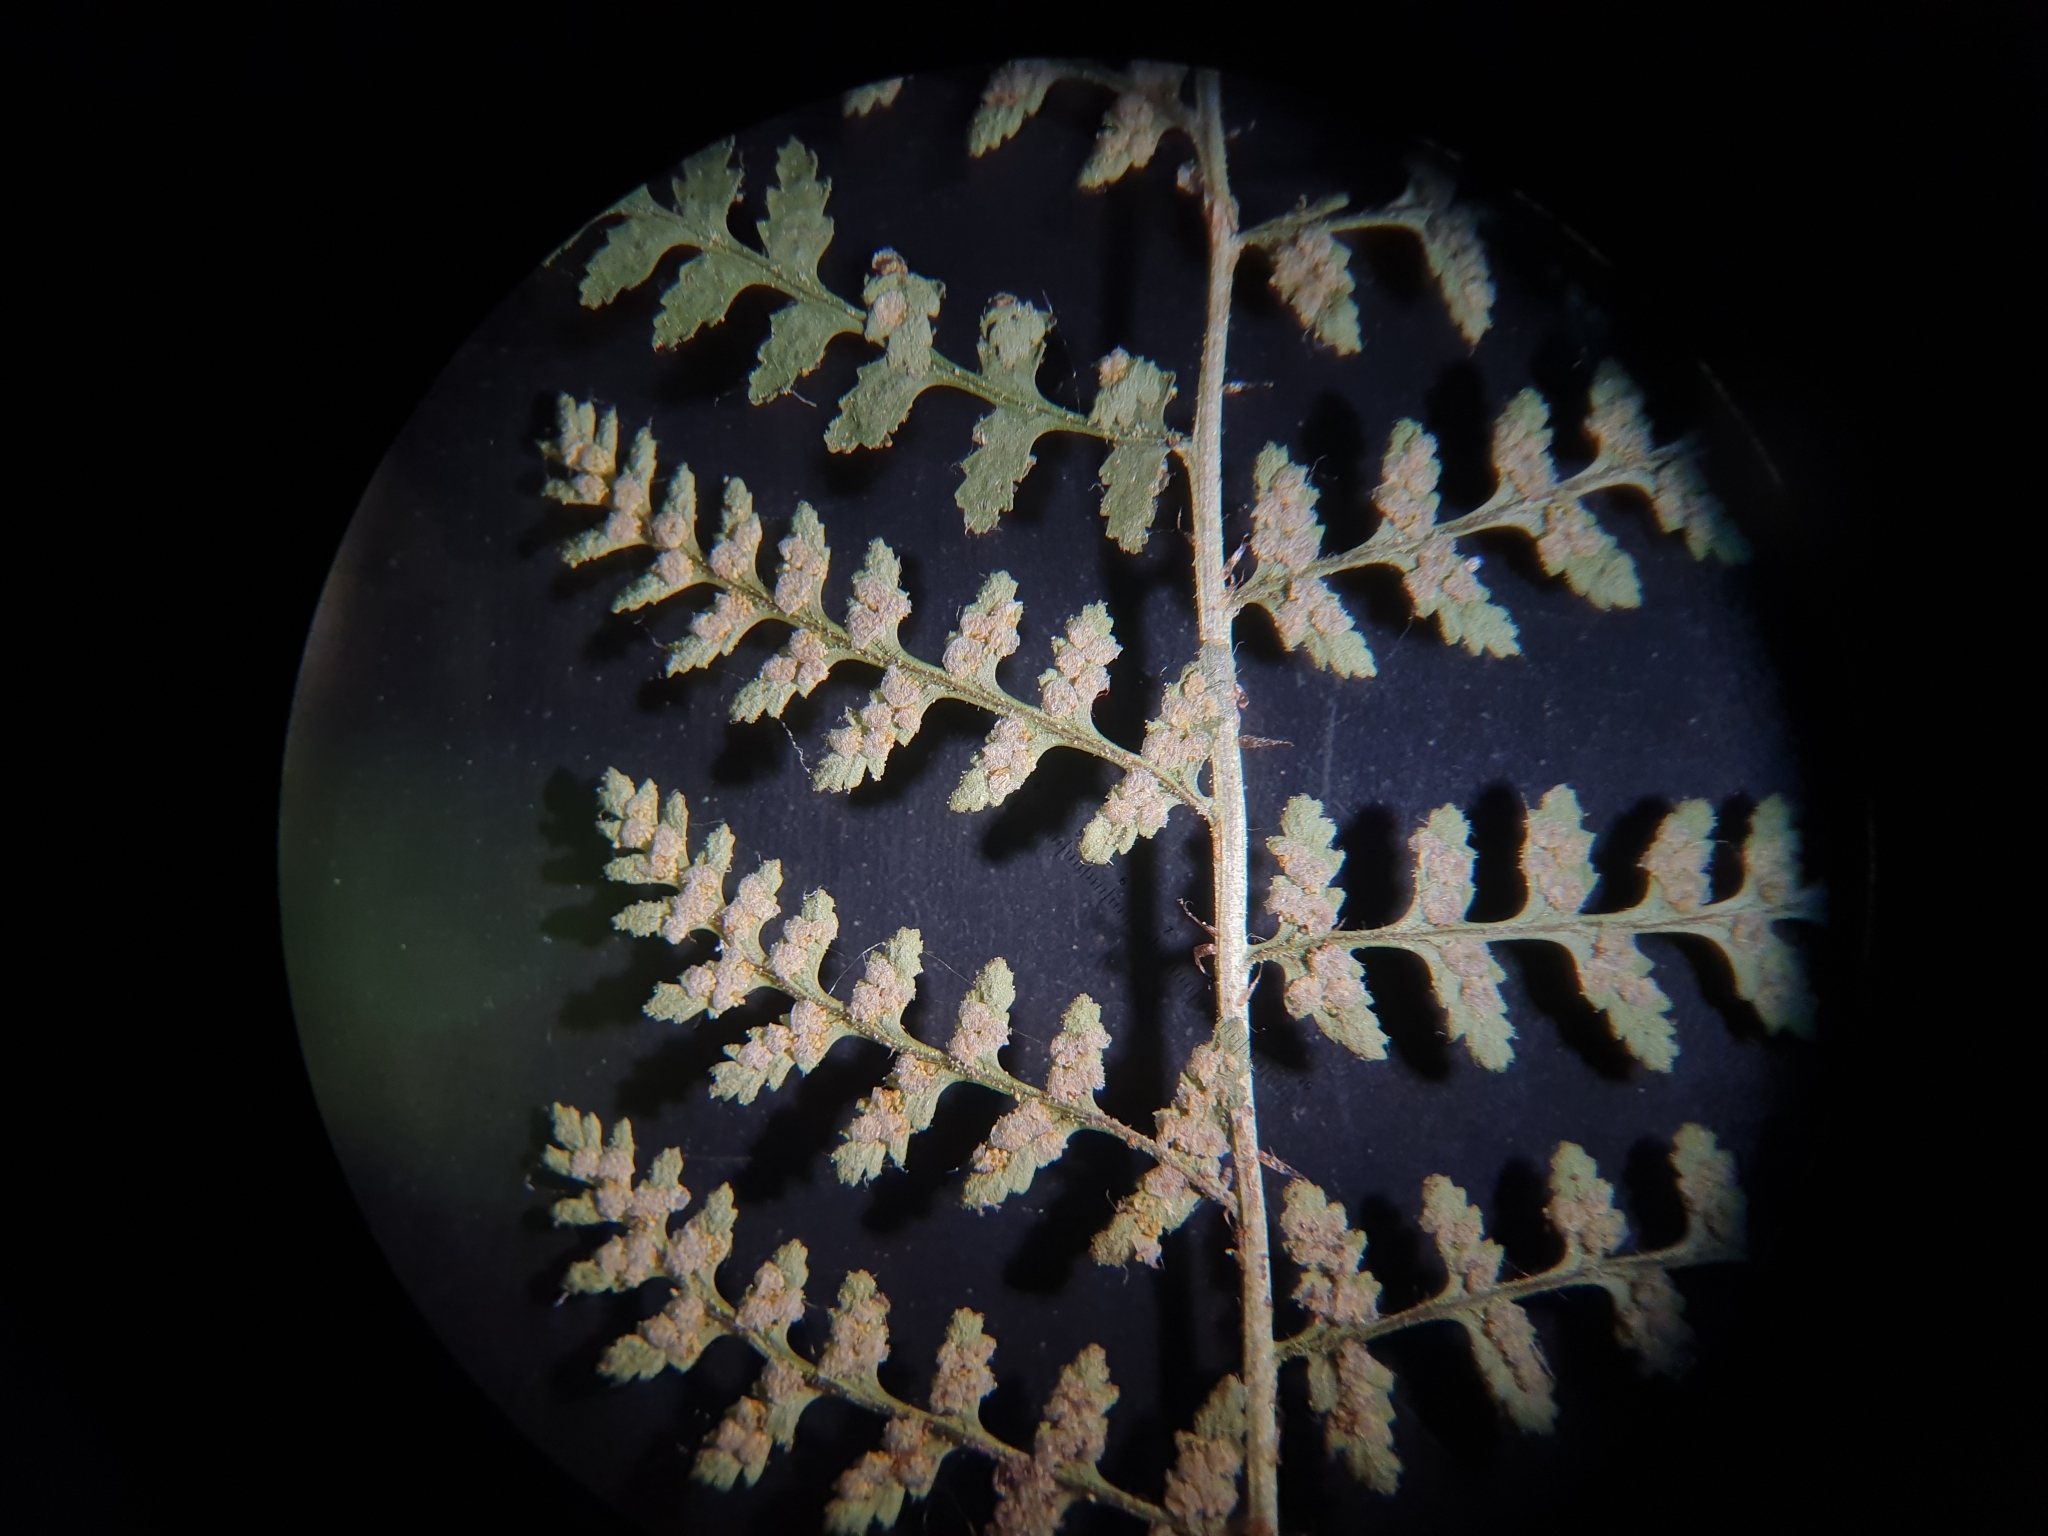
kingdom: Plantae
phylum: Tracheophyta
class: Polypodiopsida
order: Polypodiales
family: Dryopteridaceae
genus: Dryopteris
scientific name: Dryopteris fragrans
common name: Fragrant wood fern
